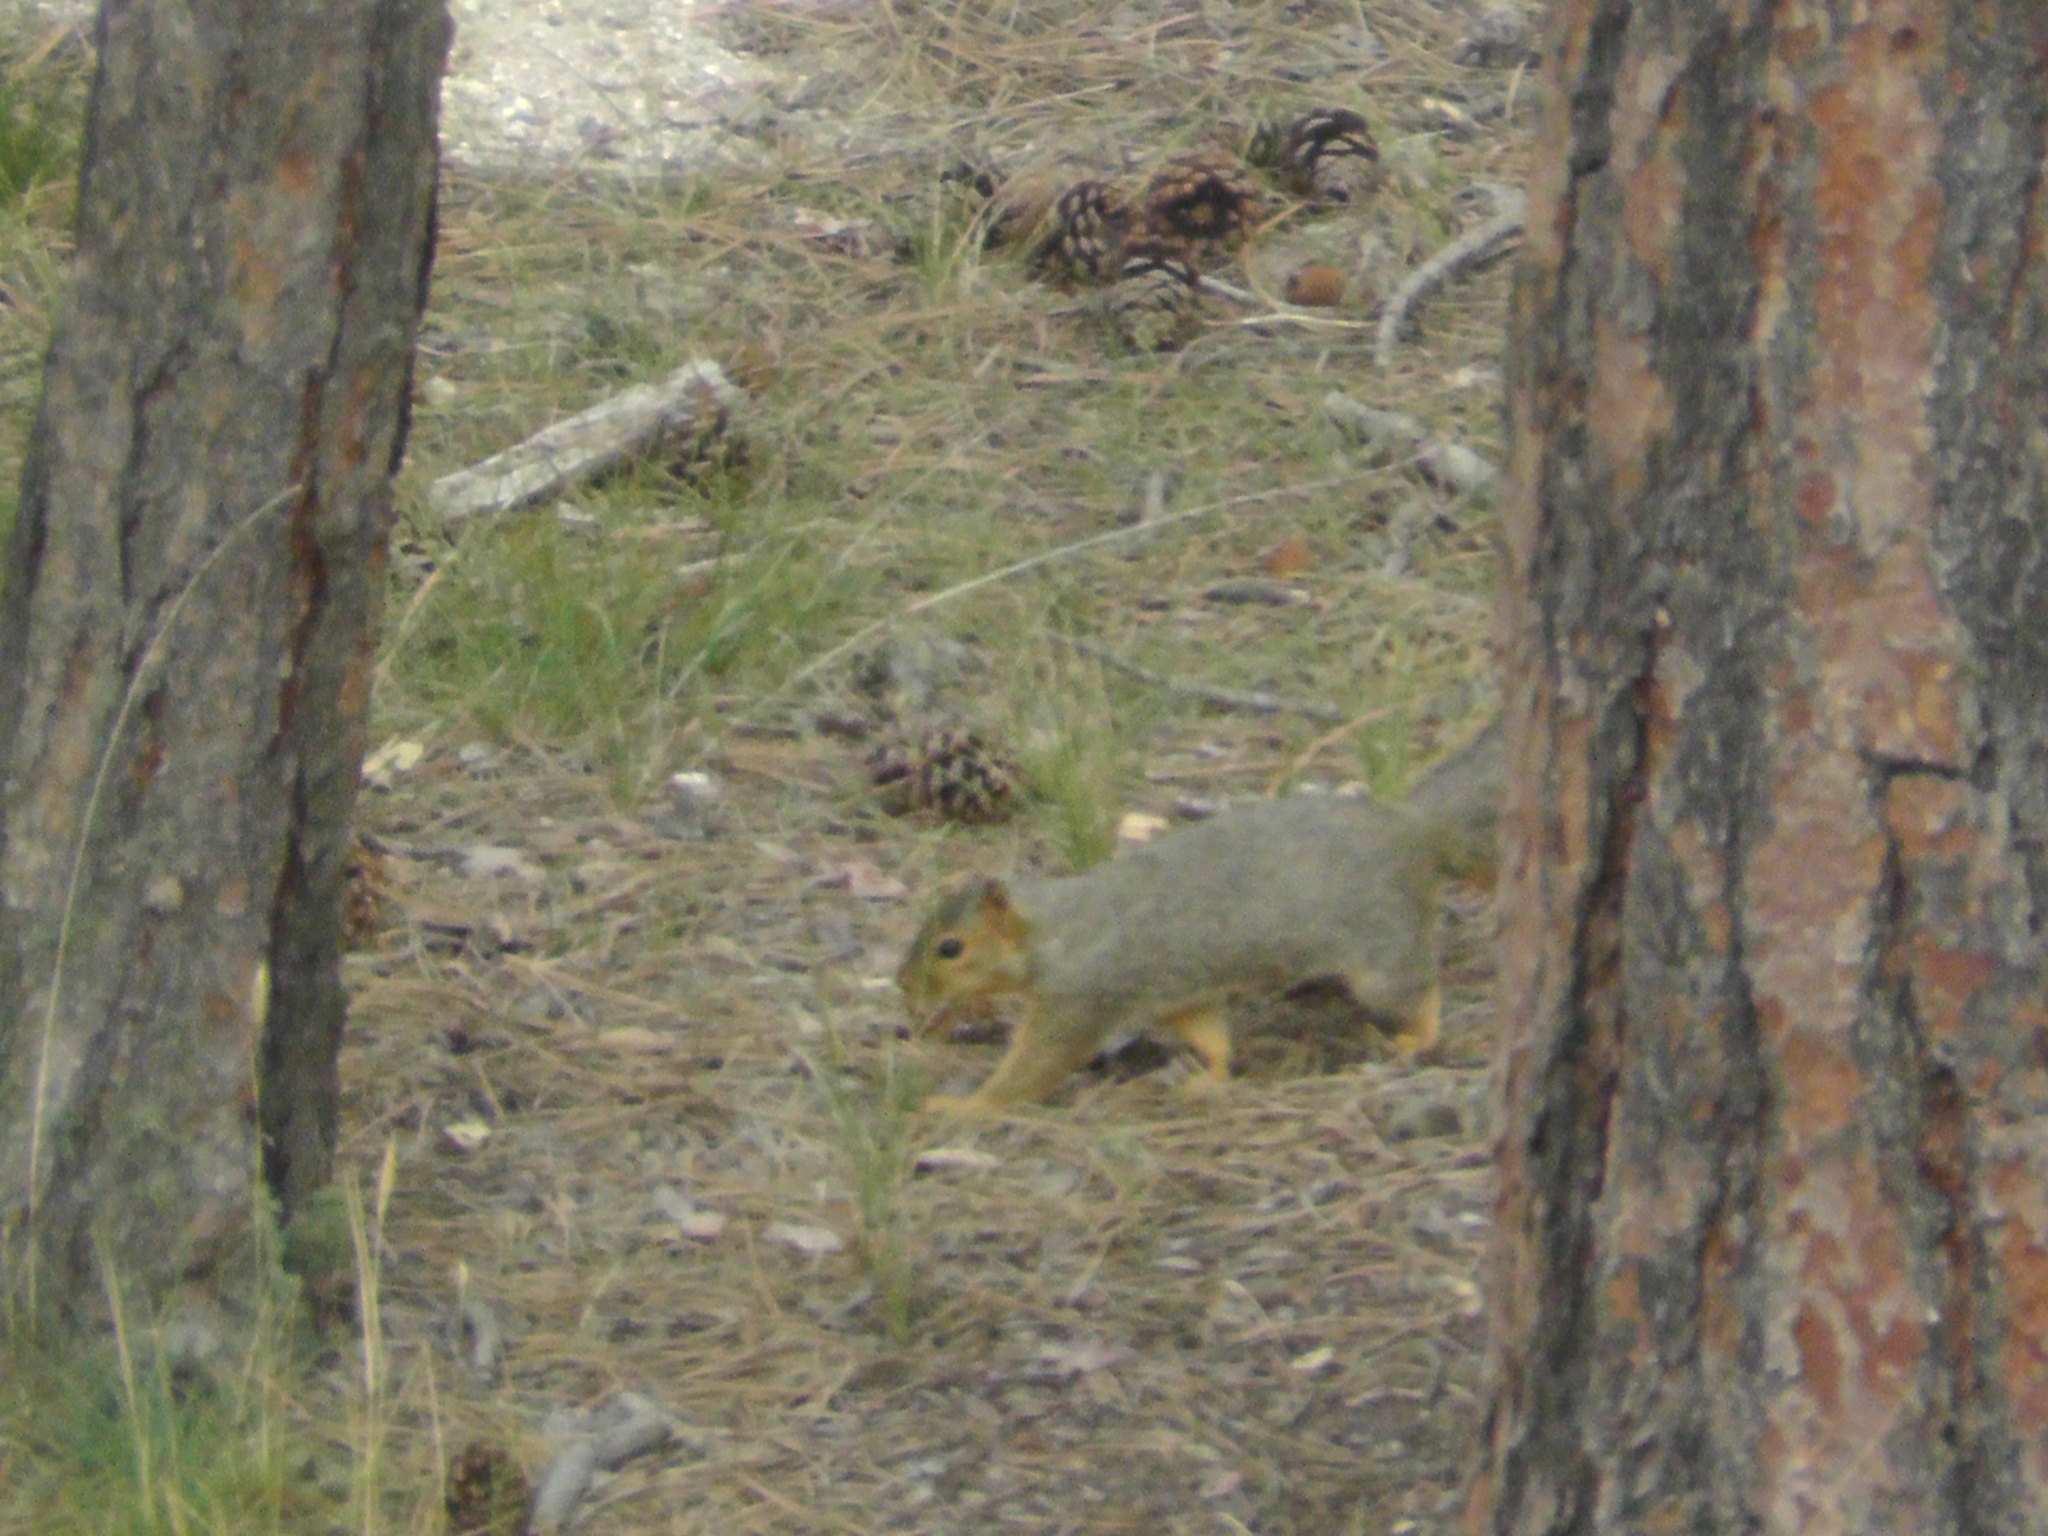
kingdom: Animalia
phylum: Chordata
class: Mammalia
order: Rodentia
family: Sciuridae
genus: Sciurus
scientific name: Sciurus niger
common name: Fox squirrel
